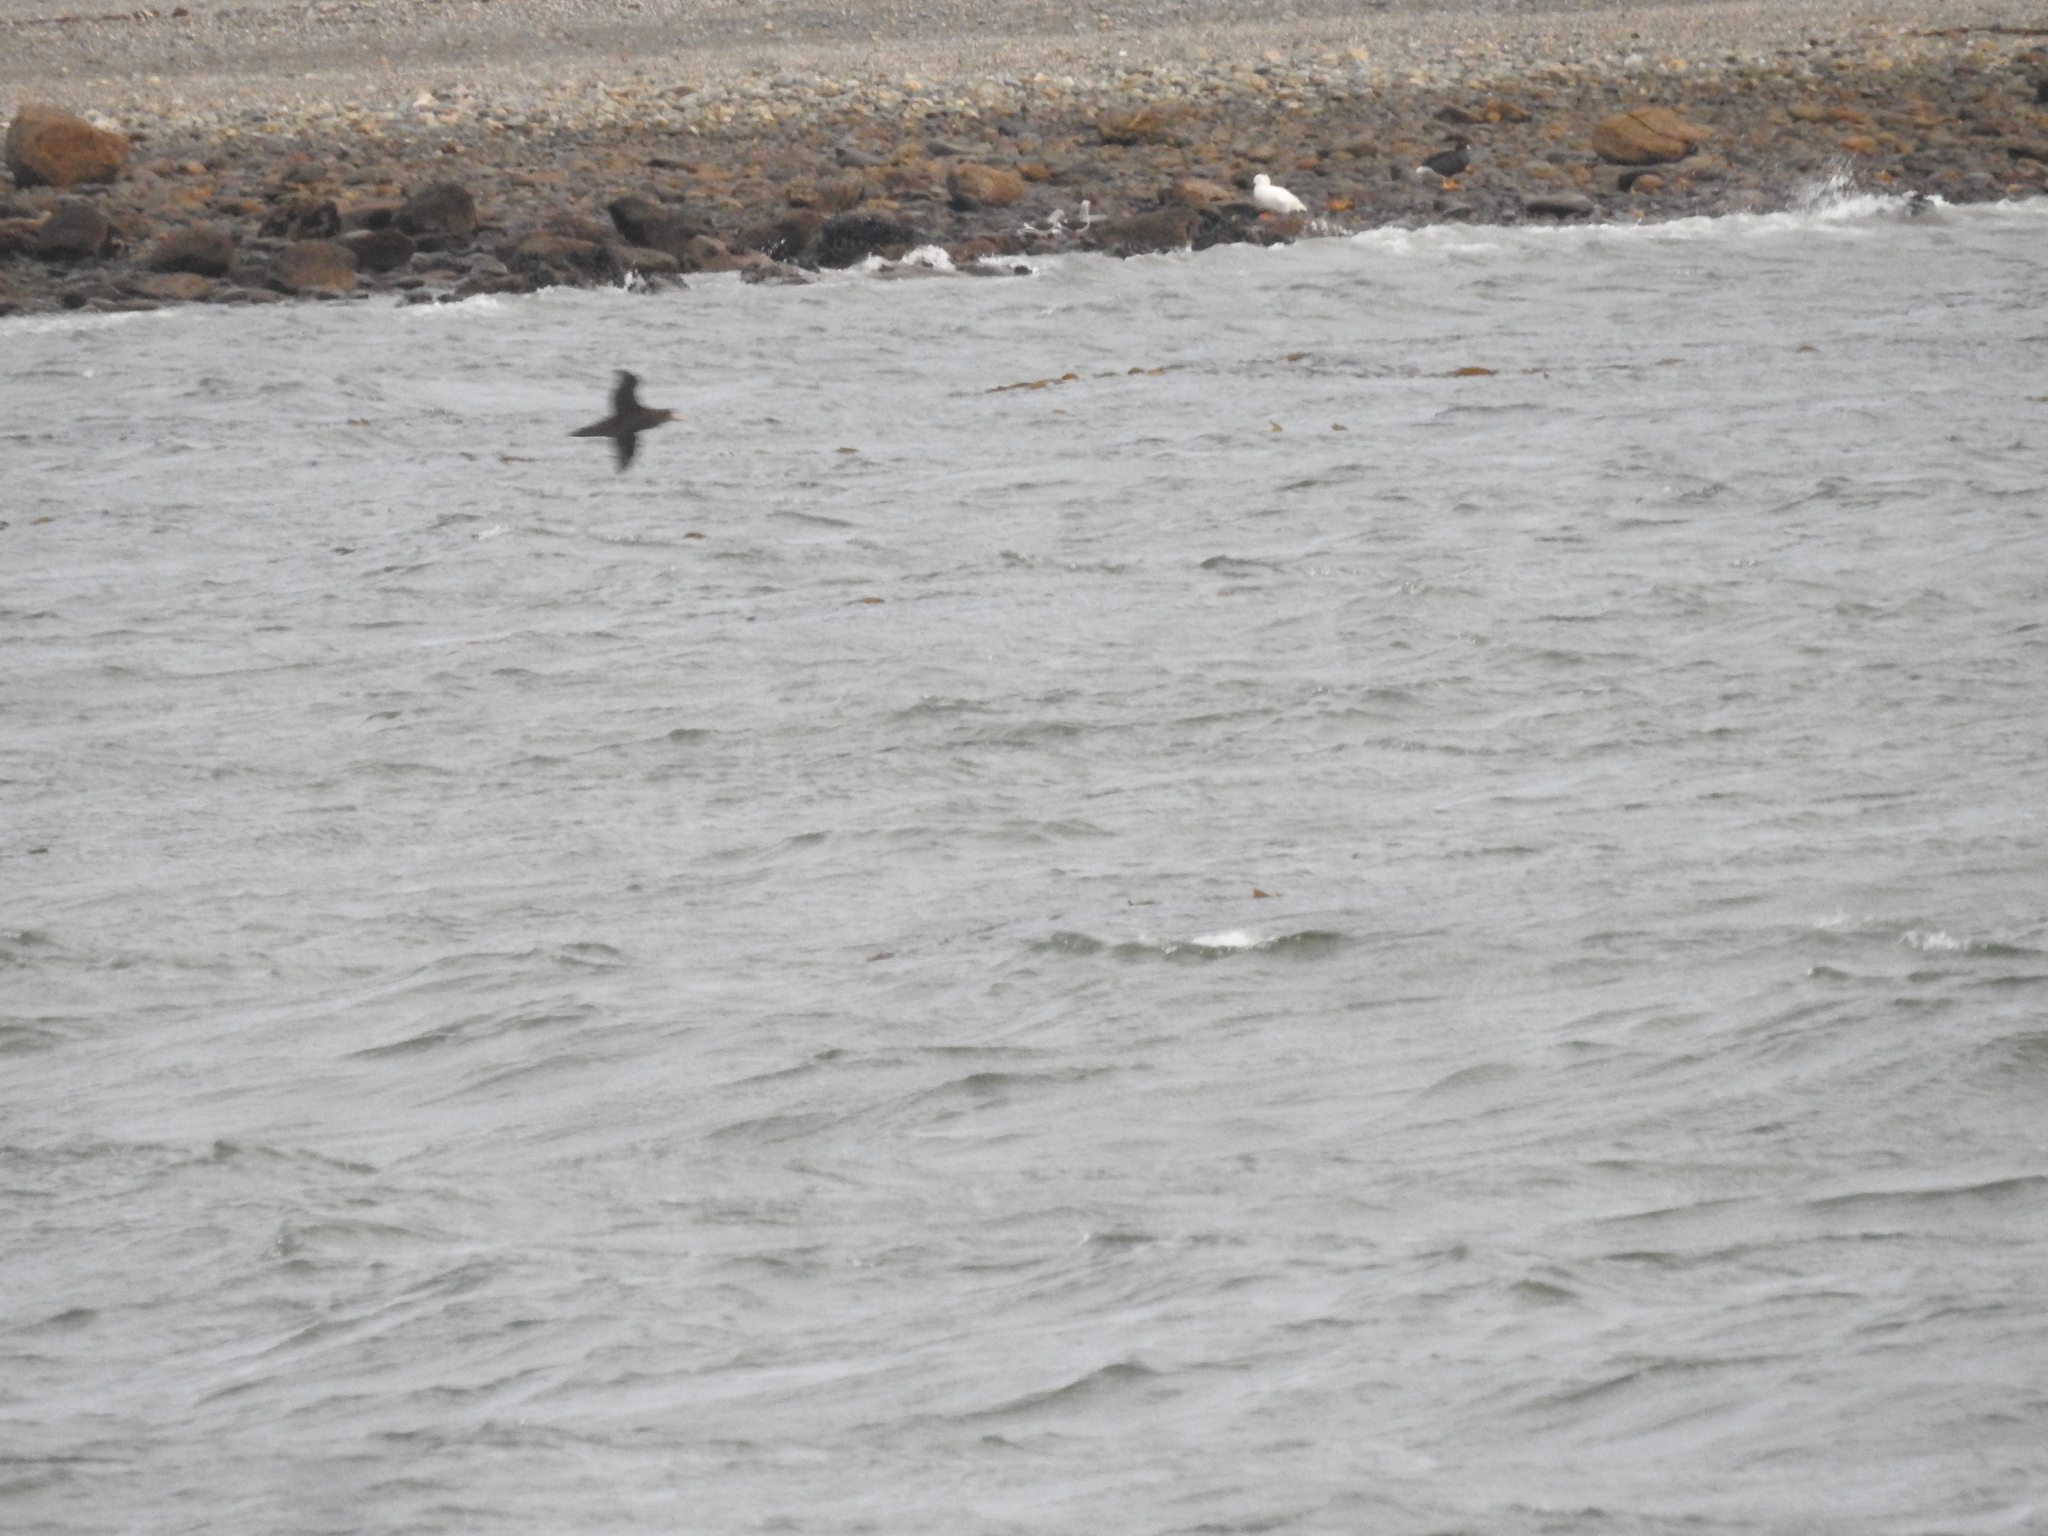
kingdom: Animalia
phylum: Chordata
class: Aves
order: Procellariiformes
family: Procellariidae
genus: Macronectes
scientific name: Macronectes giganteus
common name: Southern giant petrel
